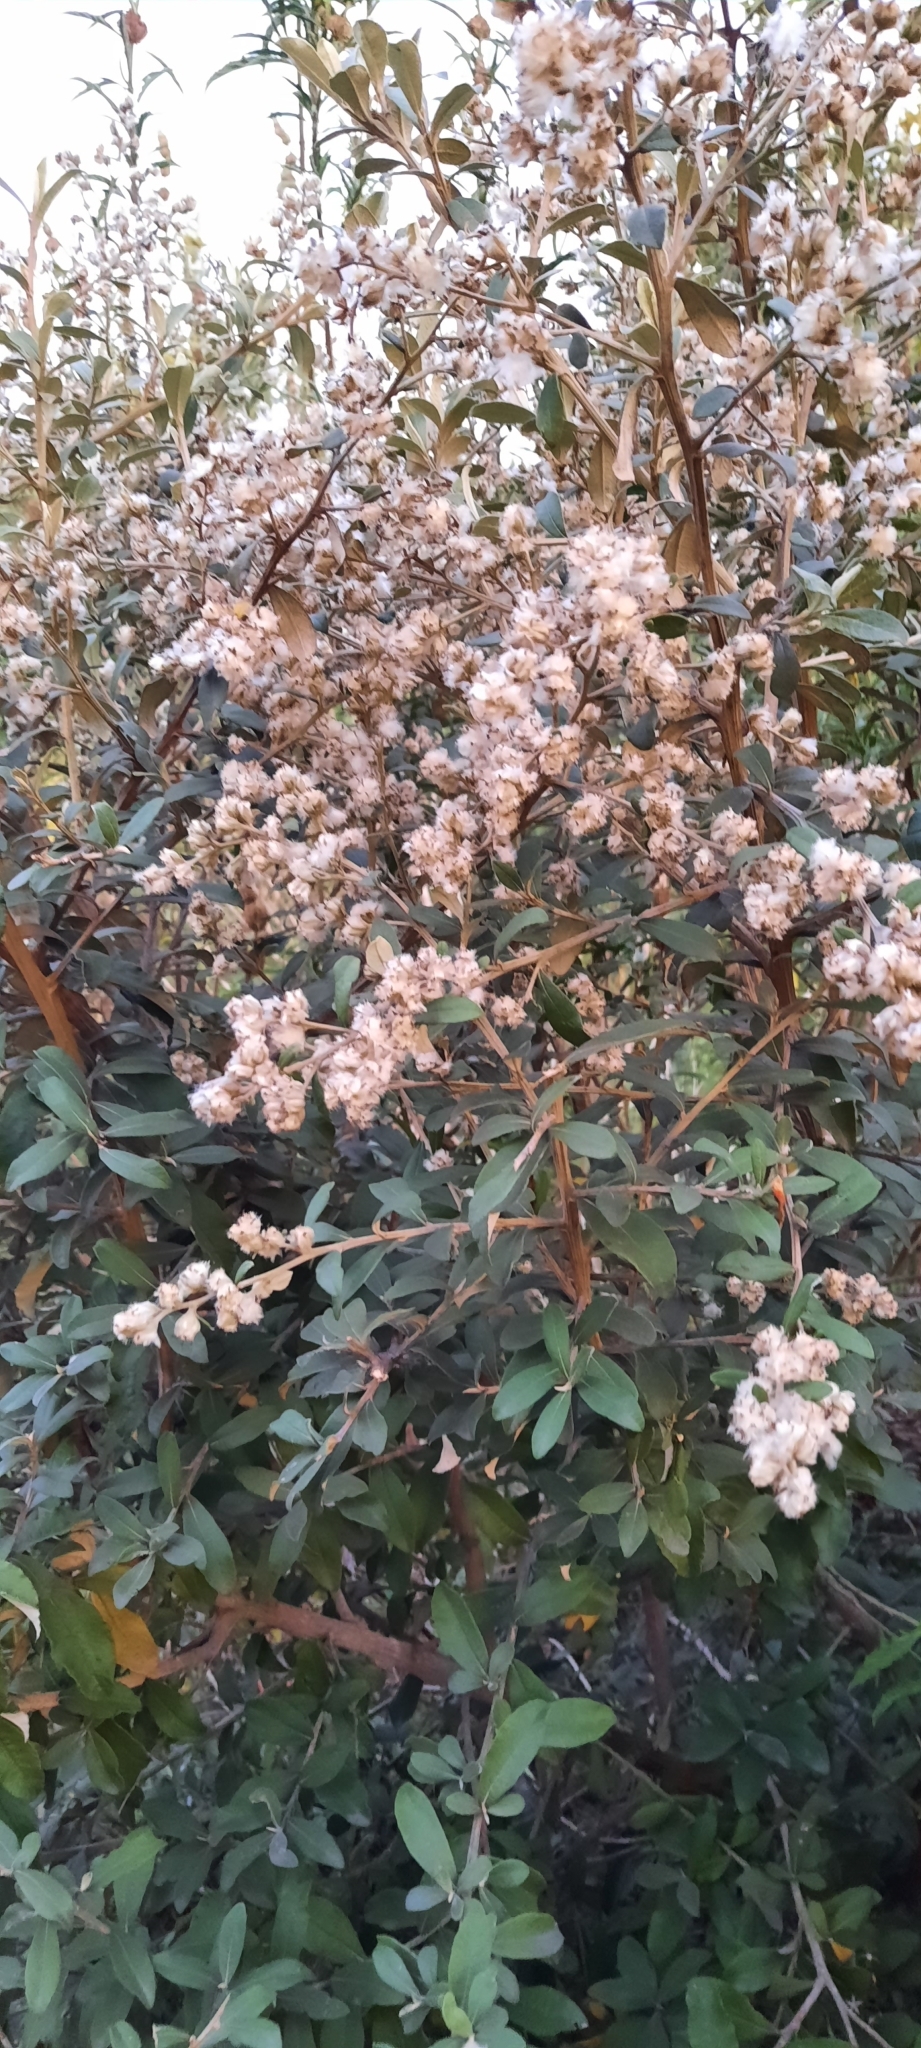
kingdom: Plantae
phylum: Tracheophyta
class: Magnoliopsida
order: Asterales
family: Asteraceae
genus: Tarchonanthus
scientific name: Tarchonanthus littoralis
